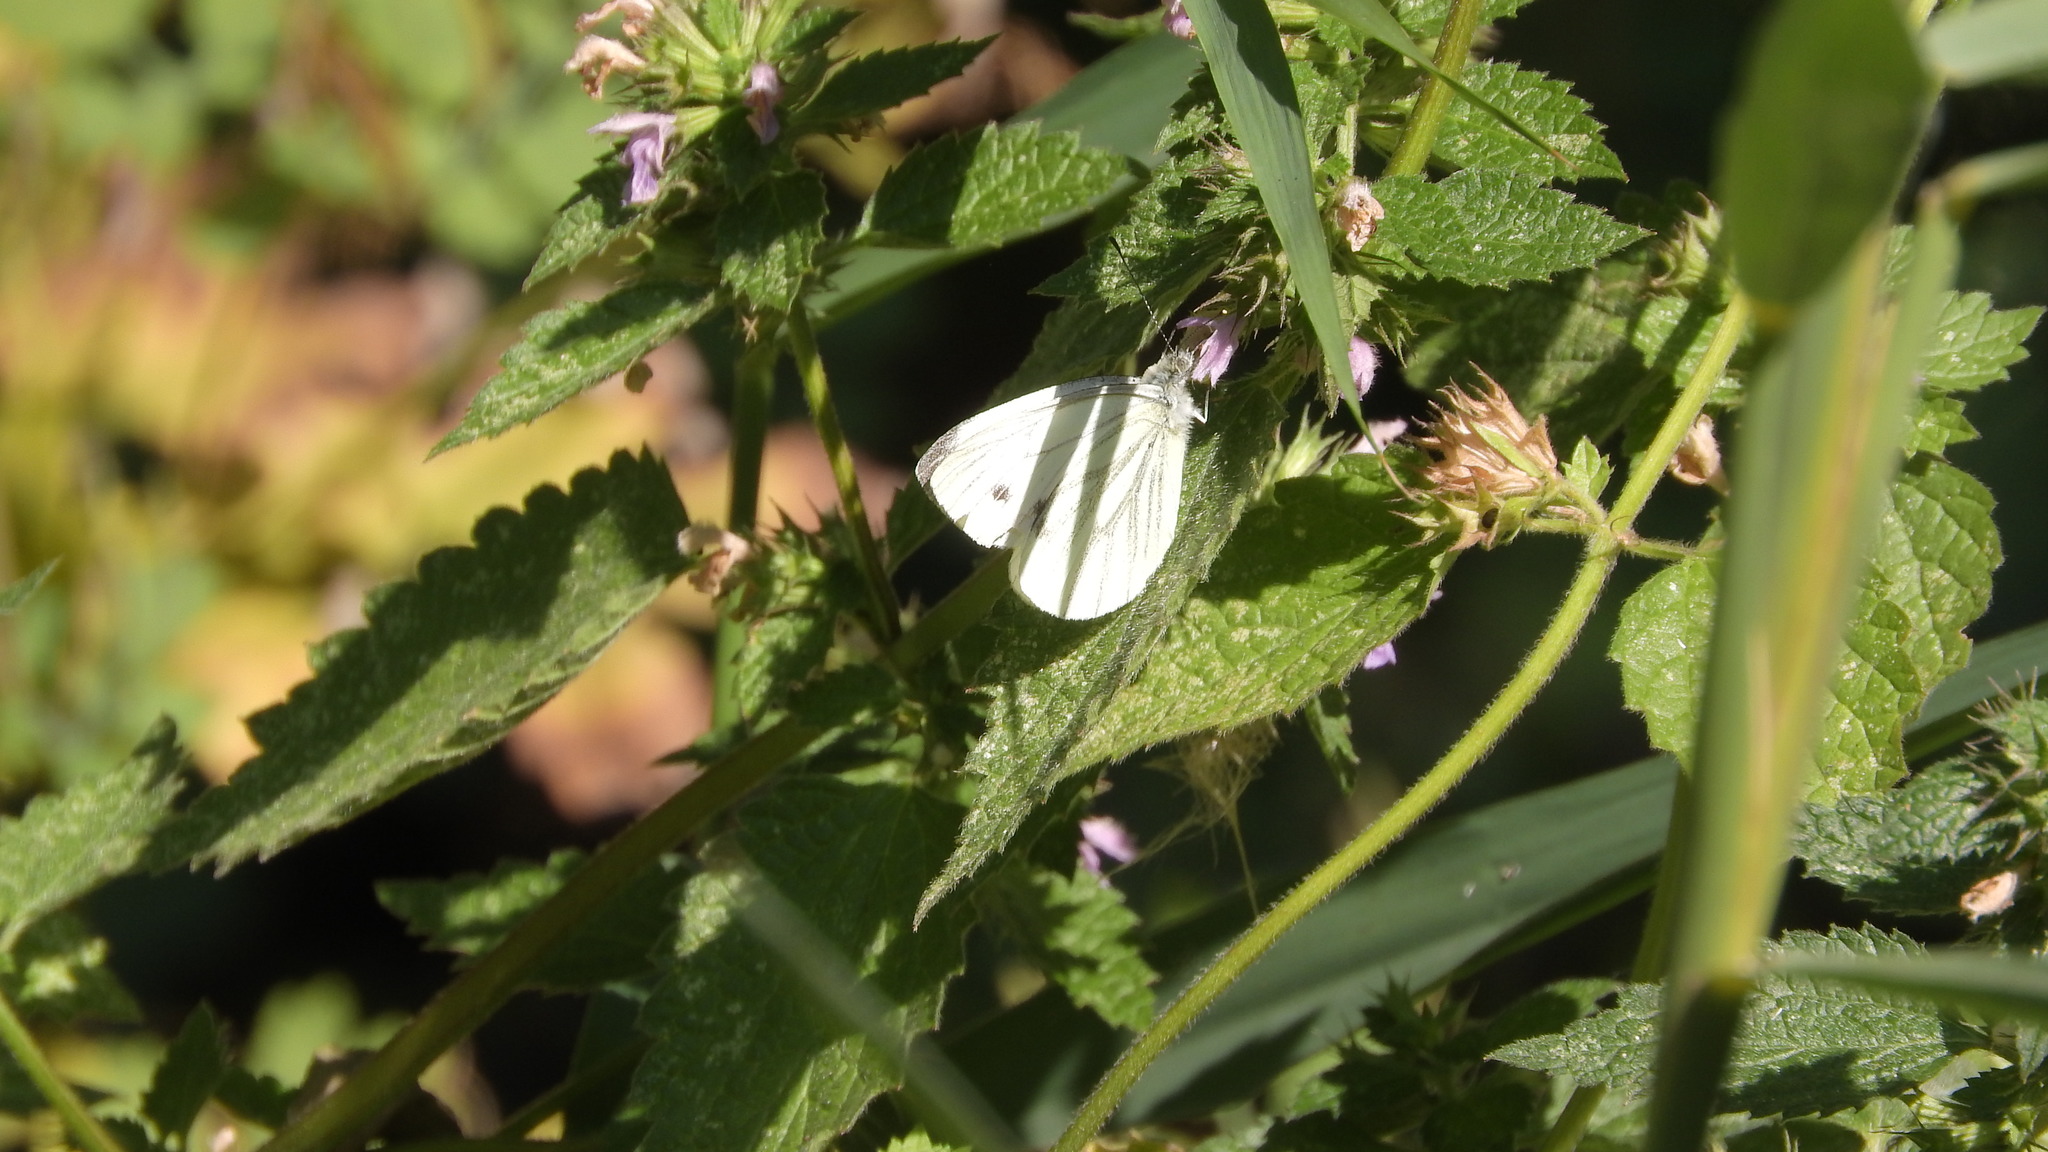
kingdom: Animalia
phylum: Arthropoda
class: Insecta
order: Lepidoptera
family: Pieridae
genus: Pieris
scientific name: Pieris napi
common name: Green-veined white
